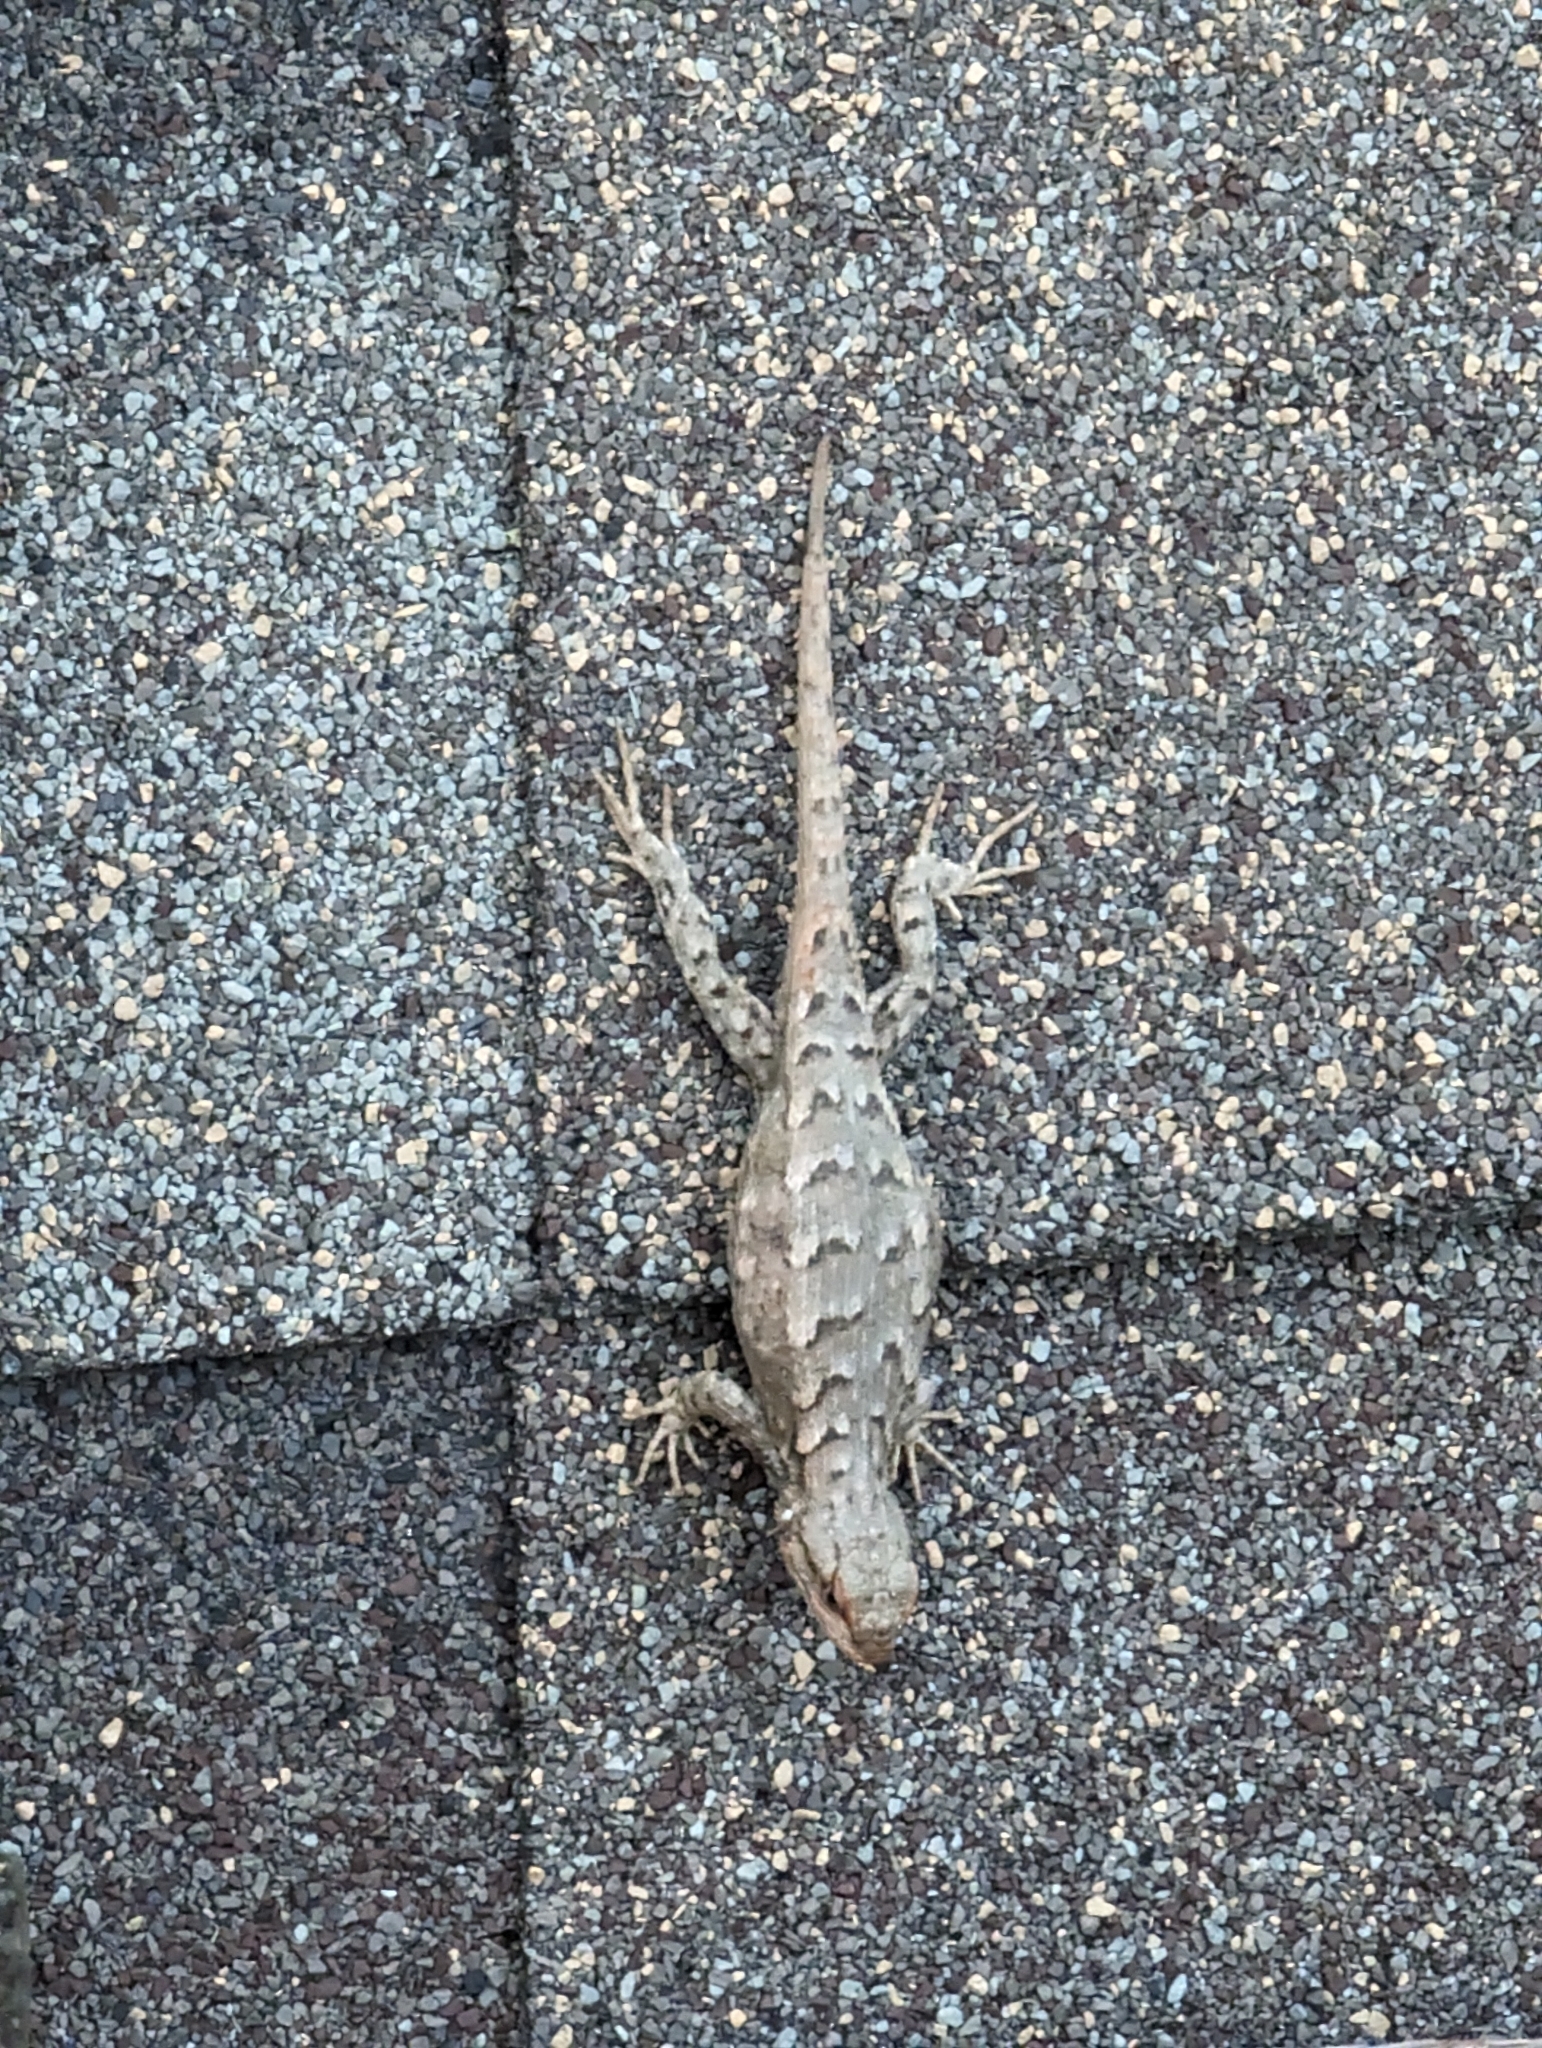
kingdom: Animalia
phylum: Chordata
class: Squamata
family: Phrynosomatidae
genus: Sceloporus
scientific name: Sceloporus consobrinus
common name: Southern prairie lizard
